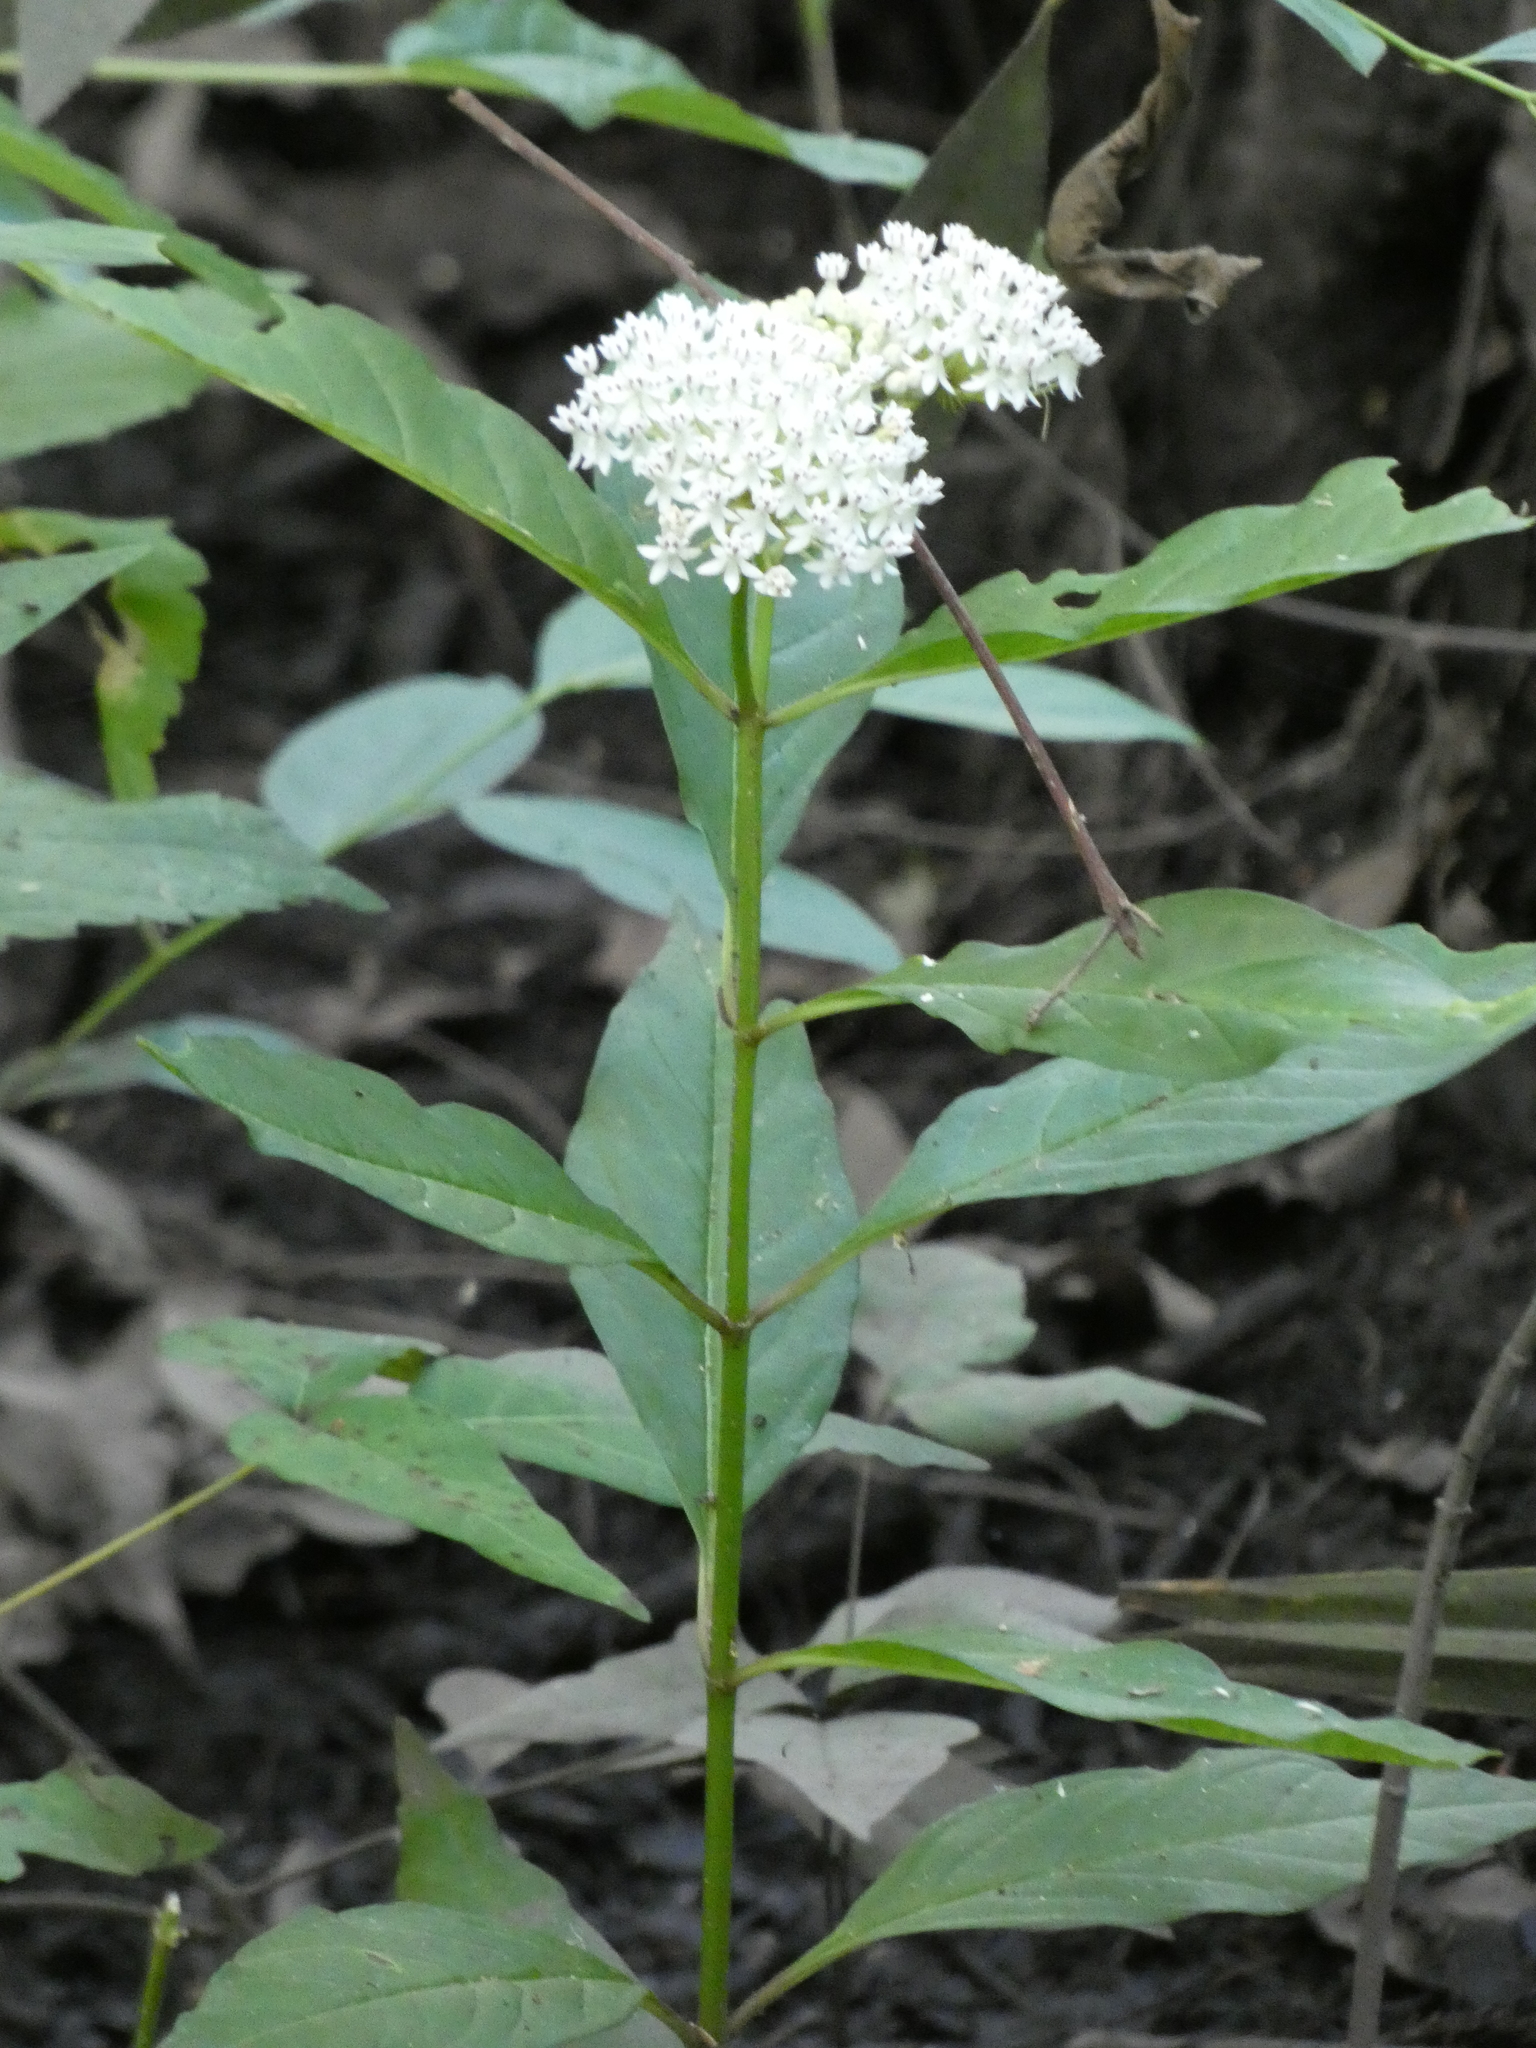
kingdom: Plantae
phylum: Tracheophyta
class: Magnoliopsida
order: Gentianales
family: Apocynaceae
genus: Asclepias
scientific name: Asclepias perennis
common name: Smooth-seed milkweed
